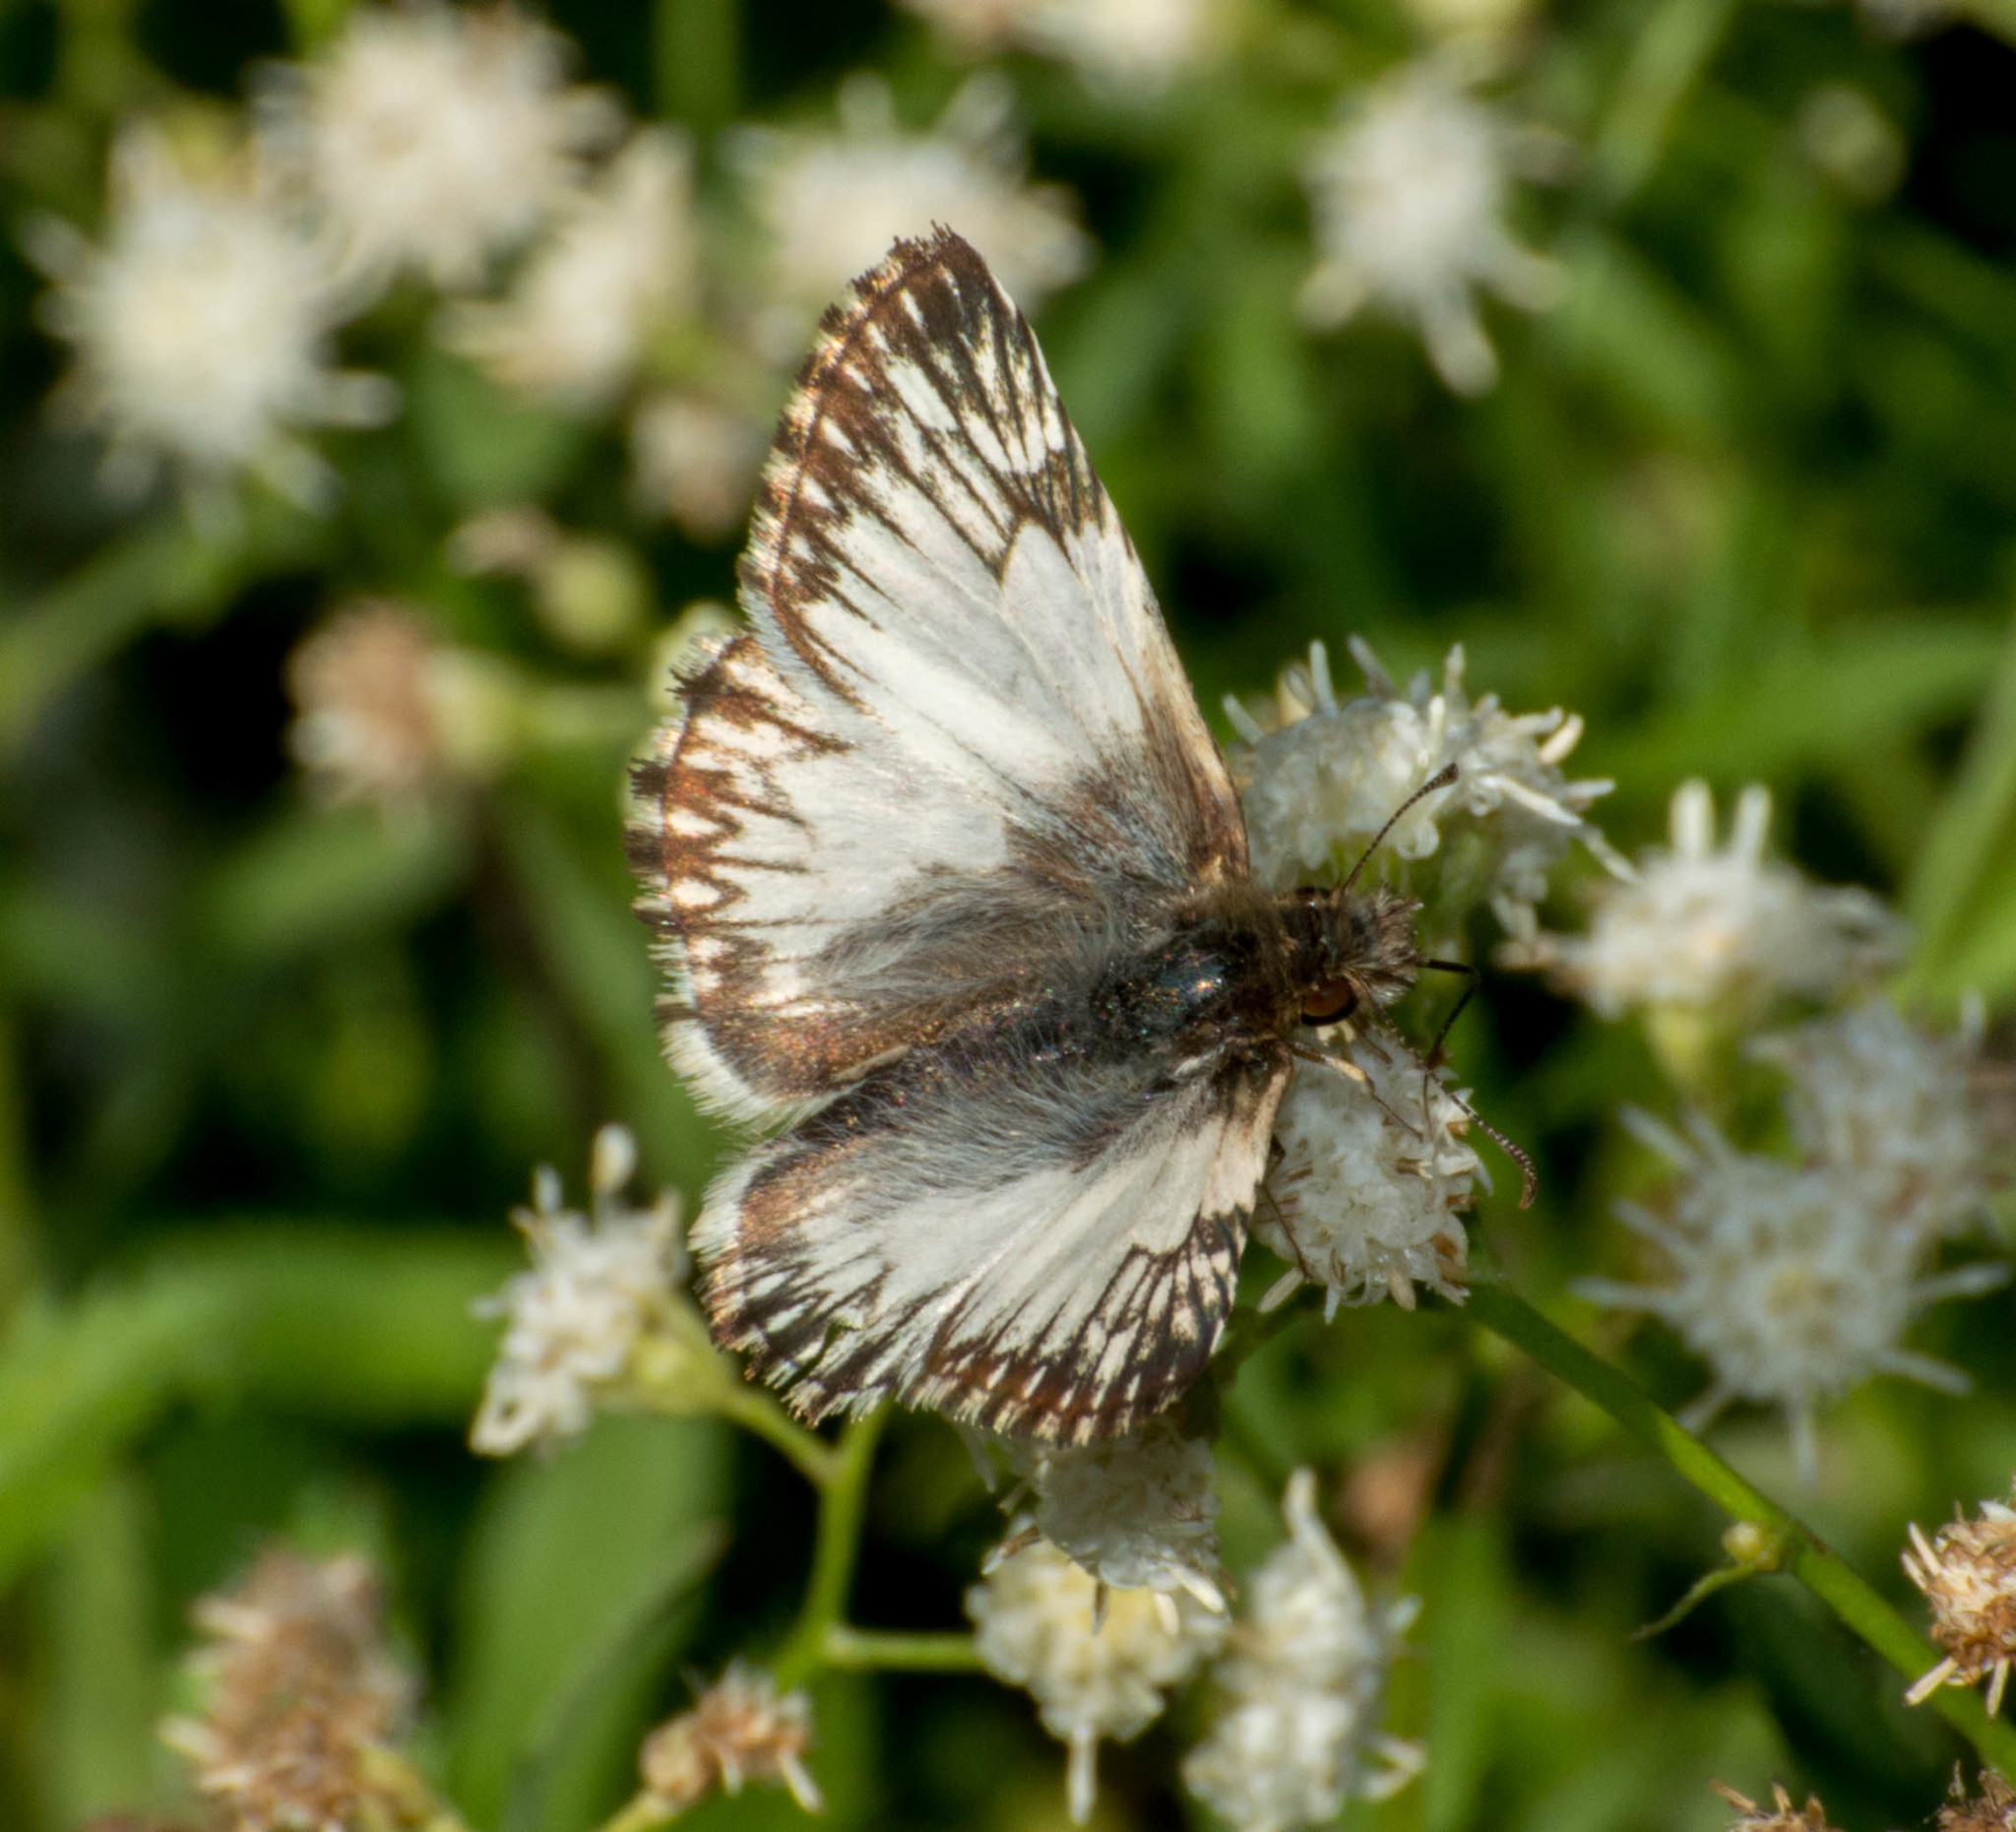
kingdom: Animalia
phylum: Arthropoda
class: Insecta
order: Lepidoptera
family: Hesperiidae
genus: Heliopetes
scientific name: Heliopetes omrina
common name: Stained white-skipper
